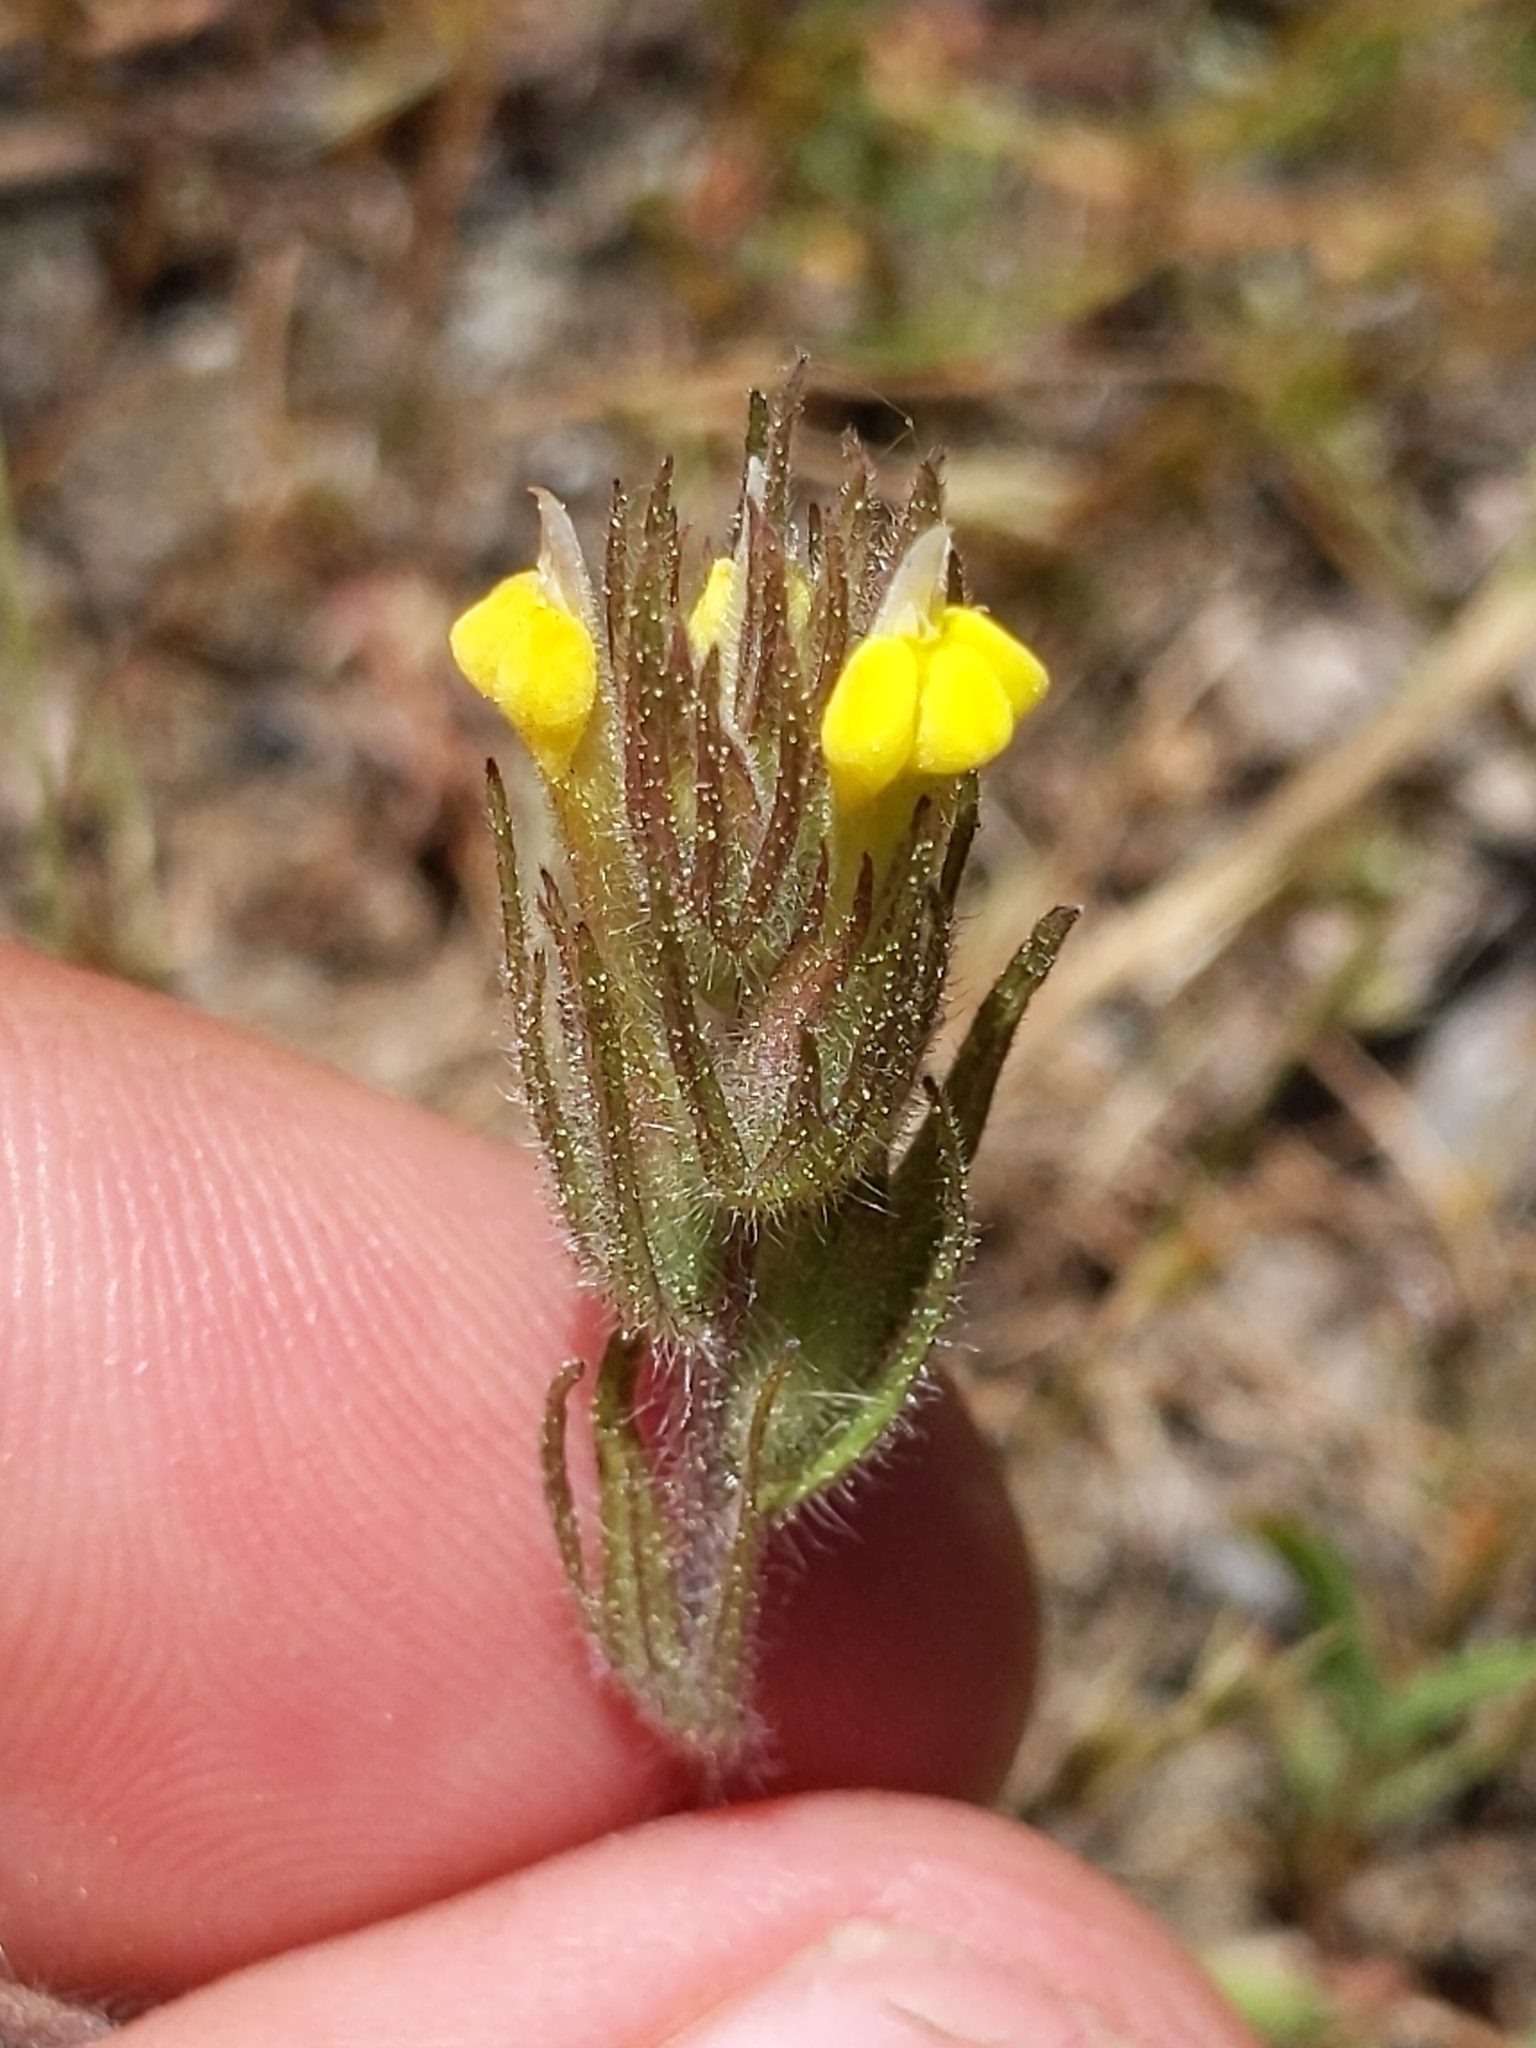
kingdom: Plantae
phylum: Tracheophyta
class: Magnoliopsida
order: Lamiales
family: Orobanchaceae
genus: Castilleja
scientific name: Castilleja tenuis
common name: Hairy indian paintbrush
